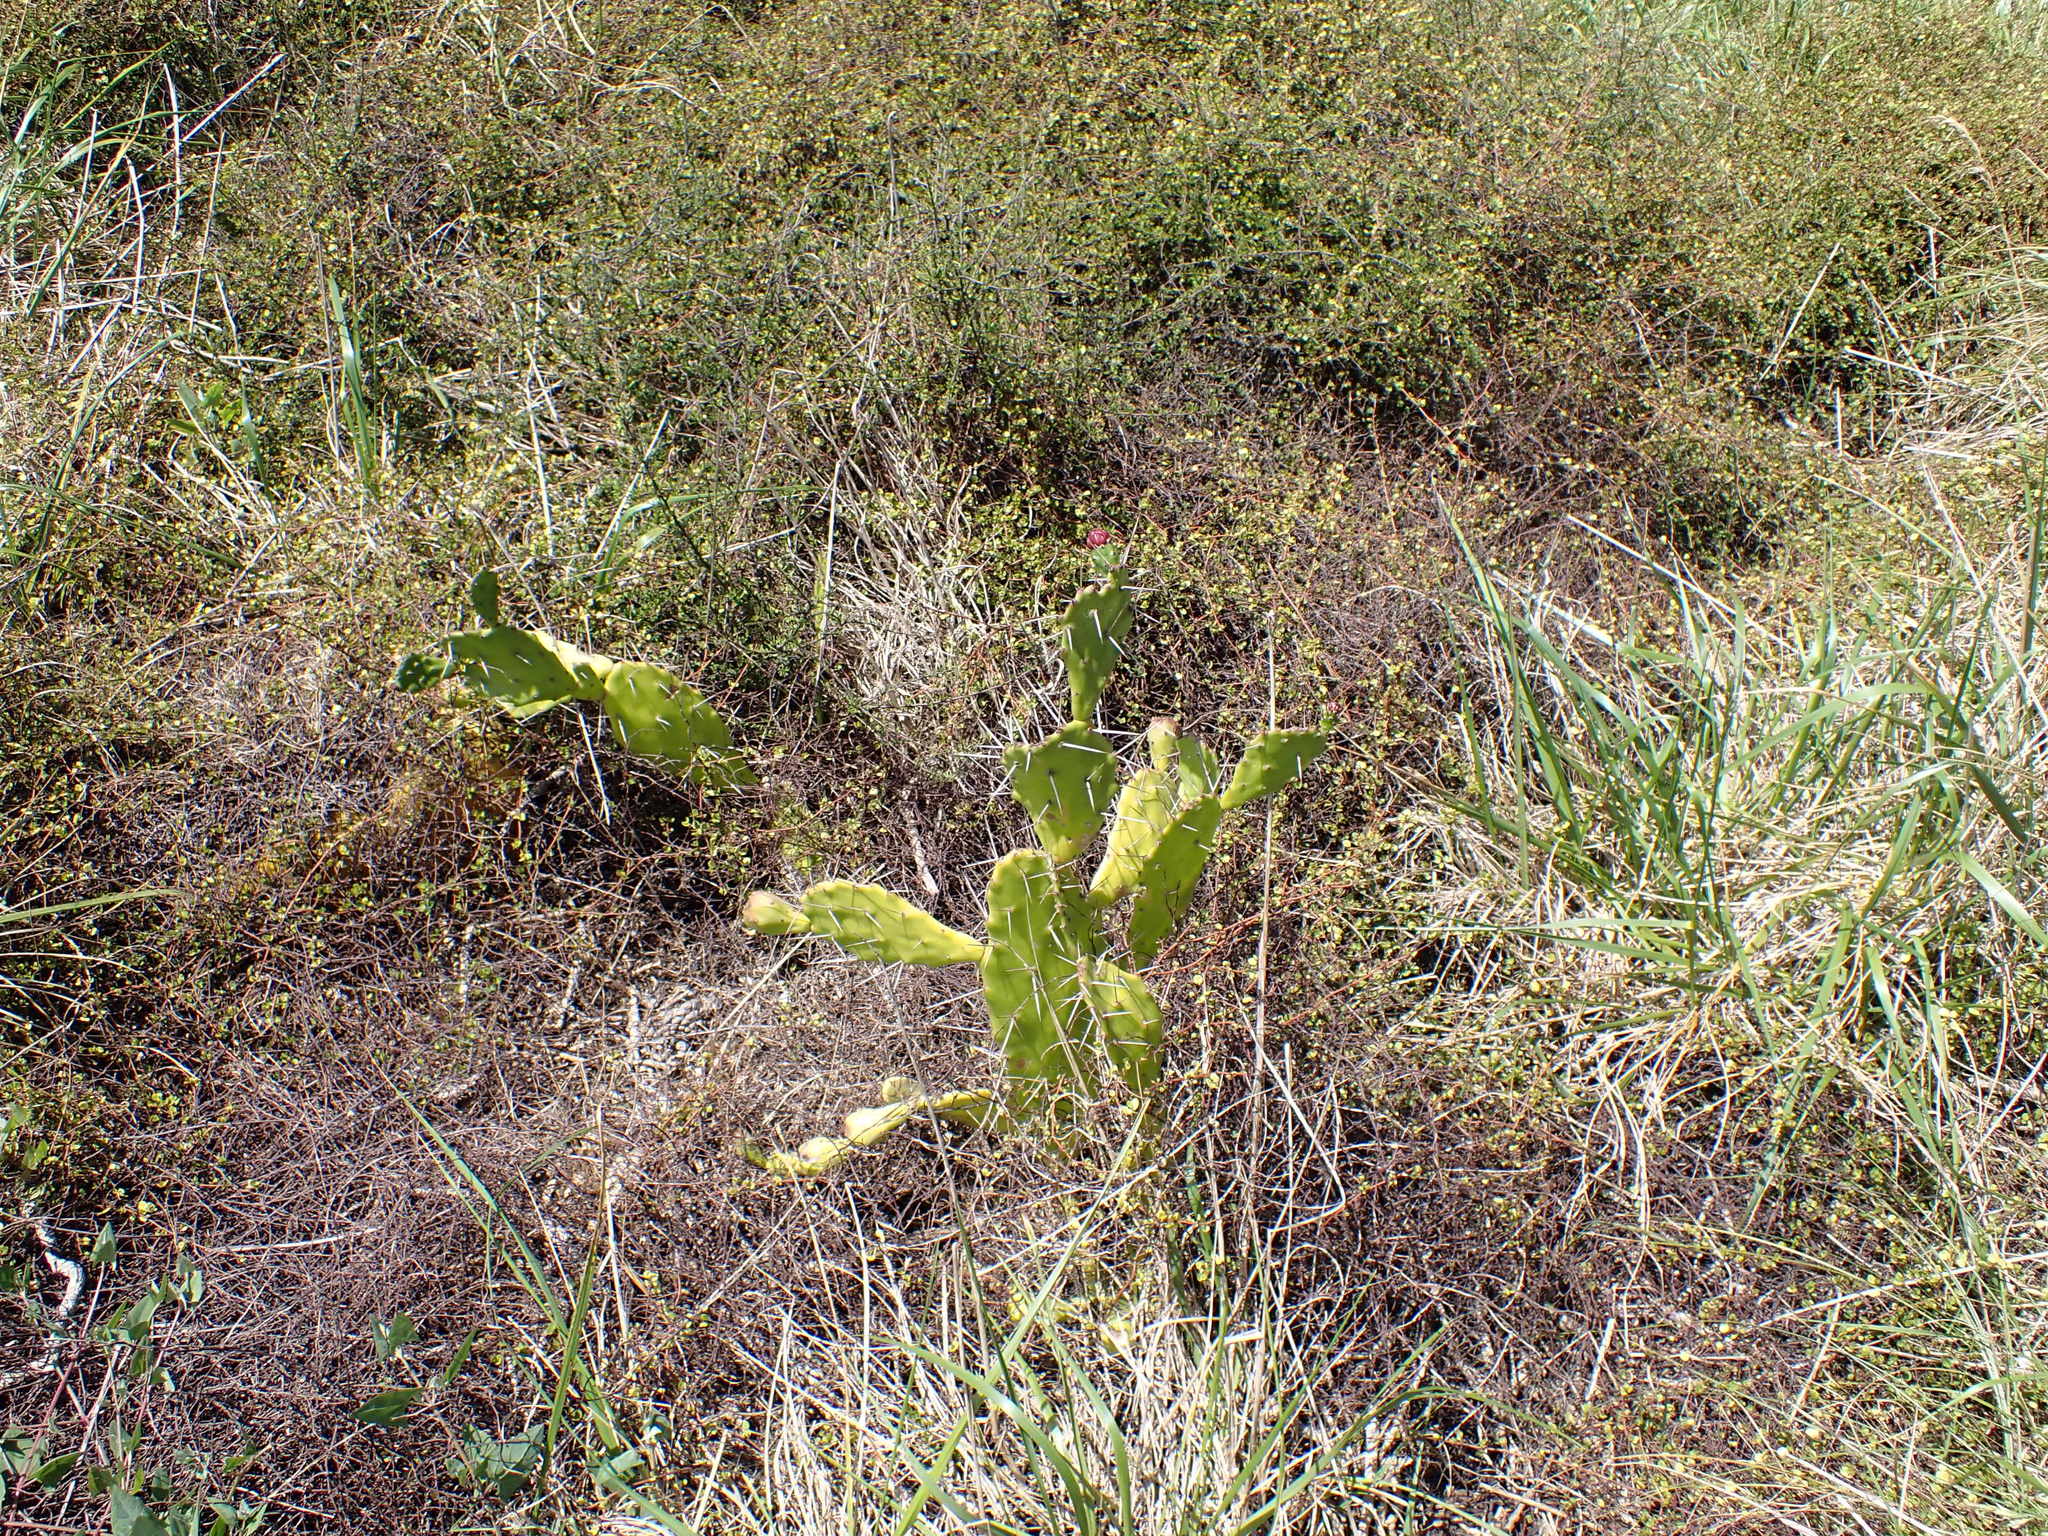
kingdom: Plantae
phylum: Tracheophyta
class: Magnoliopsida
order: Caryophyllales
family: Cactaceae
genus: Opuntia
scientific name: Opuntia monacantha
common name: Common pricklypear
